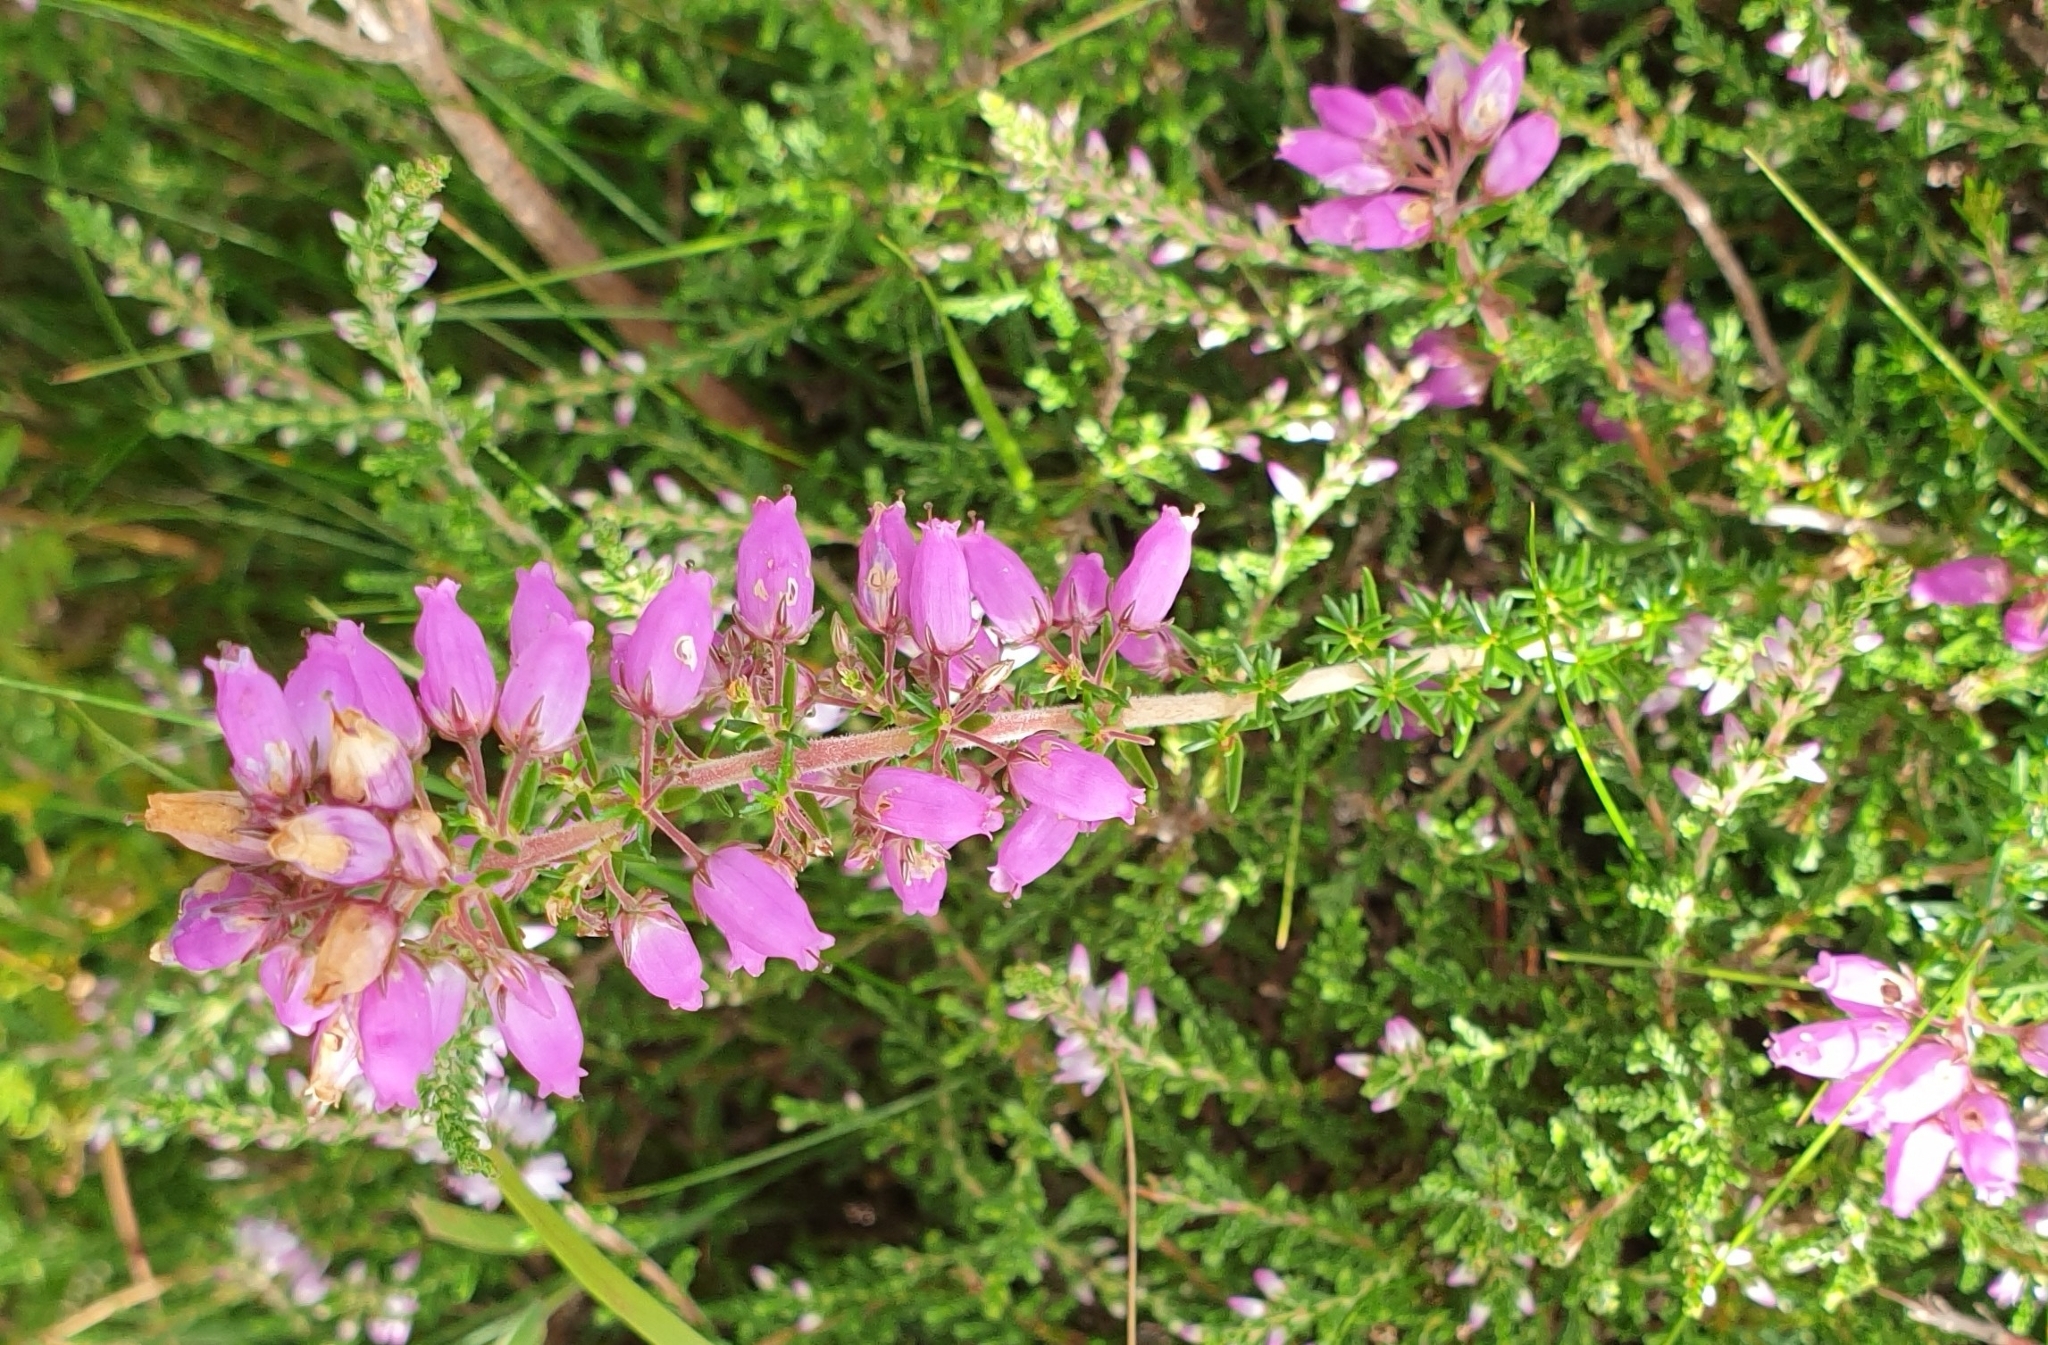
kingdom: Plantae
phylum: Tracheophyta
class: Magnoliopsida
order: Ericales
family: Ericaceae
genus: Erica
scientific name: Erica cinerea
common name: Bell heather
